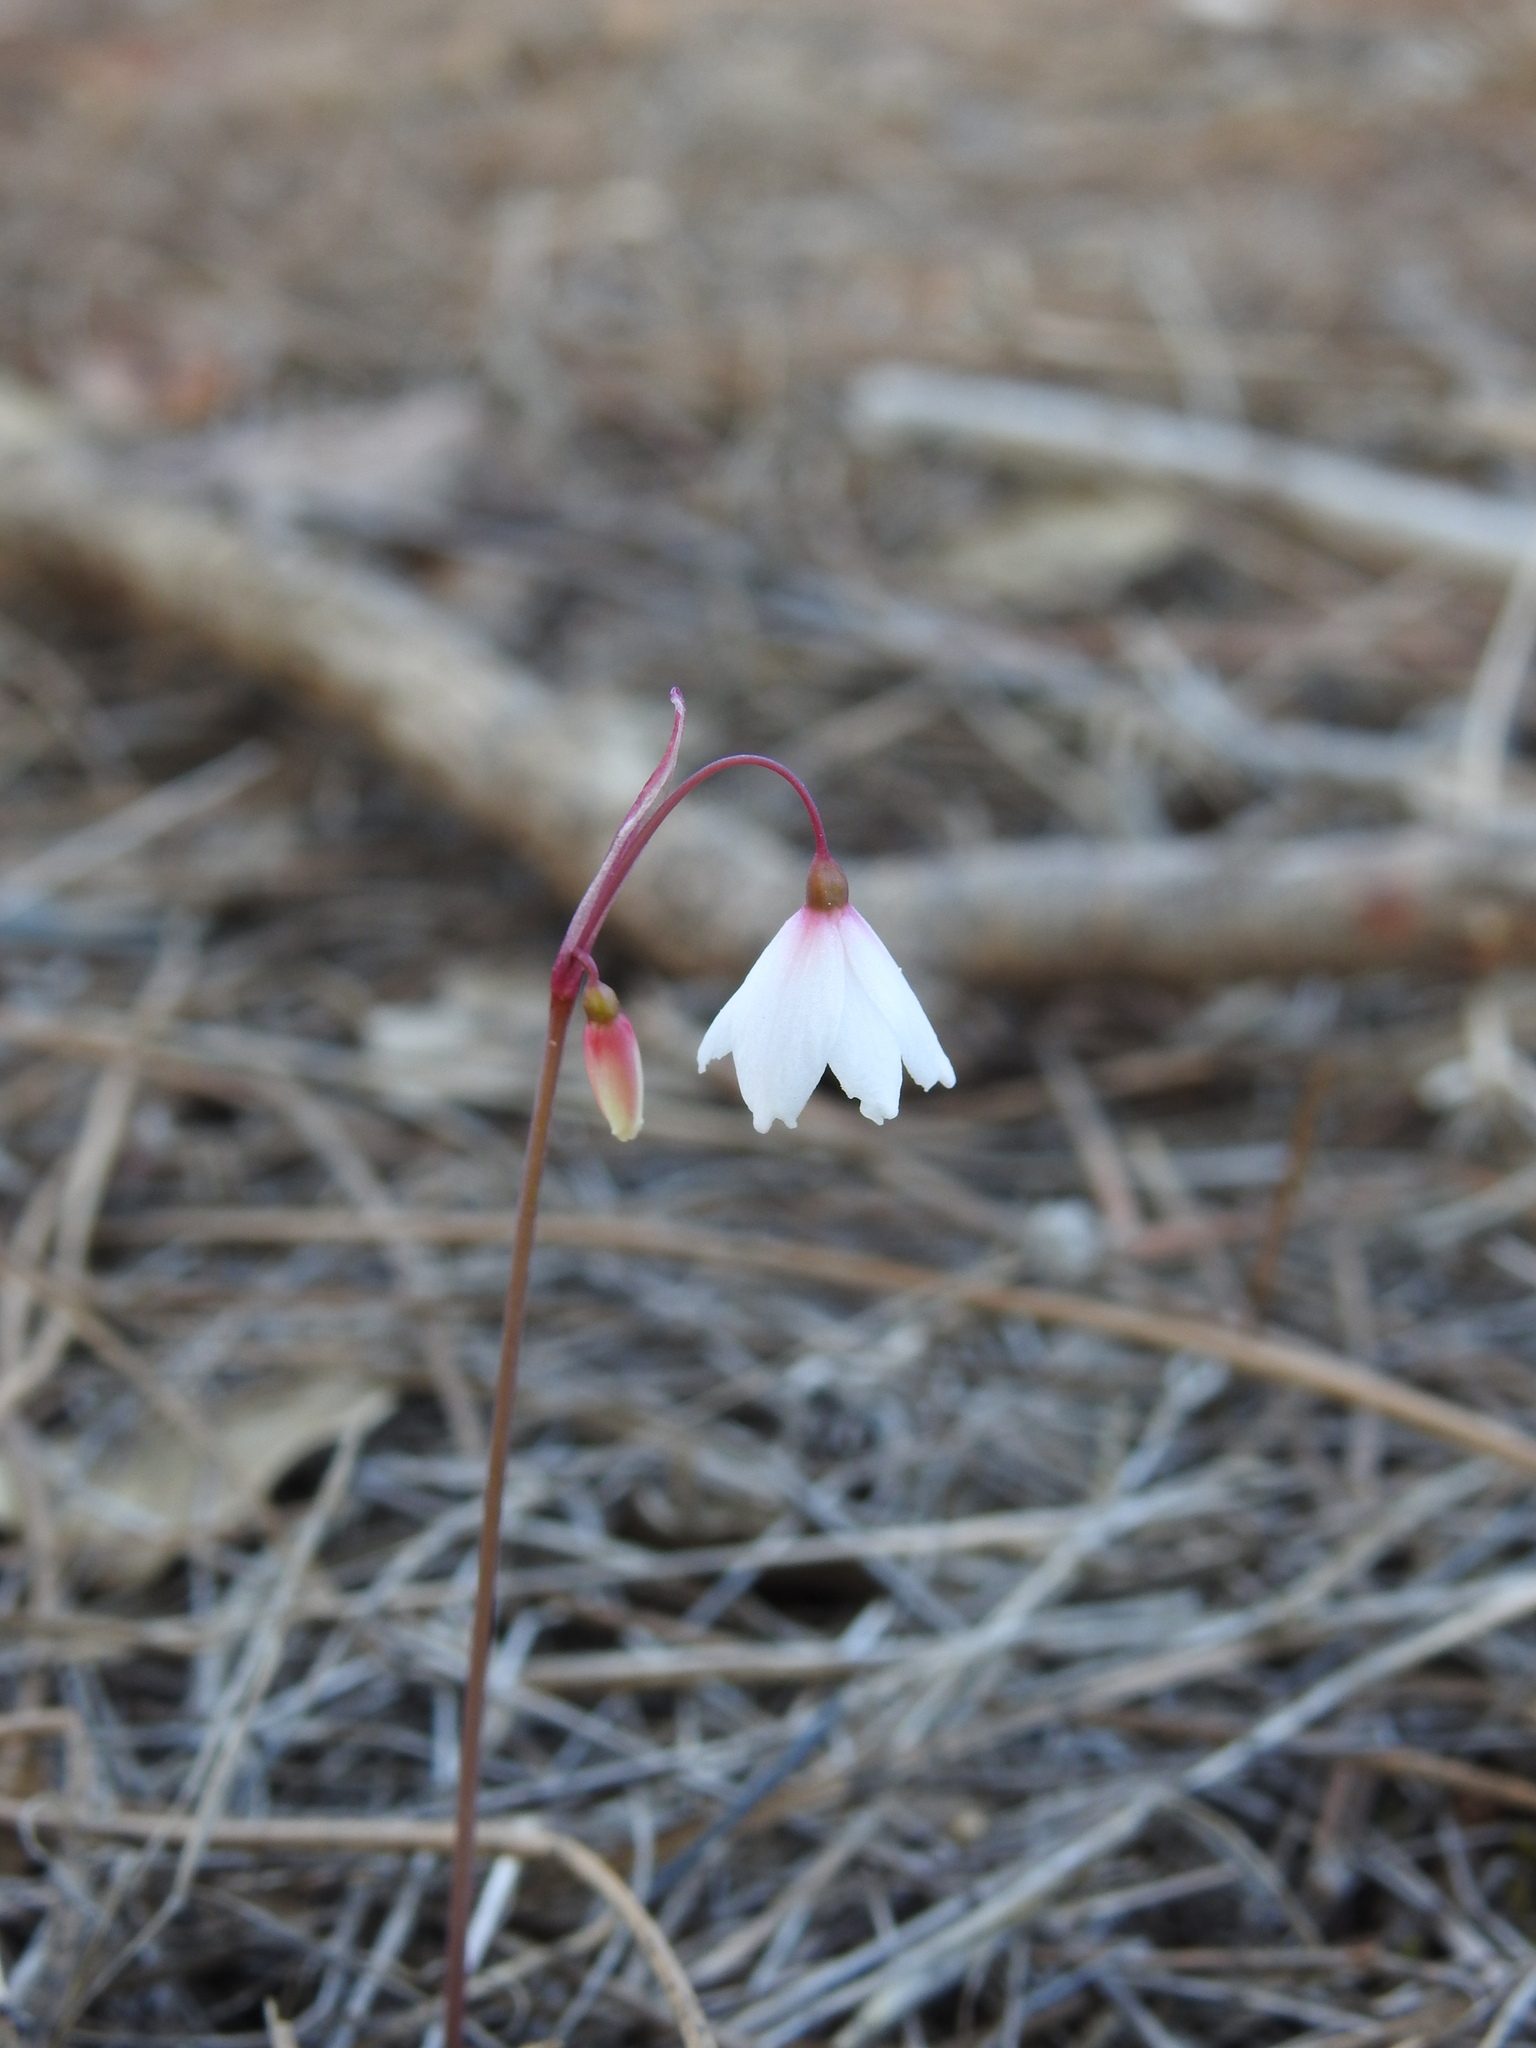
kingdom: Plantae
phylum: Tracheophyta
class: Liliopsida
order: Asparagales
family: Amaryllidaceae
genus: Acis
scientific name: Acis autumnalis
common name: Autumn snowflake
